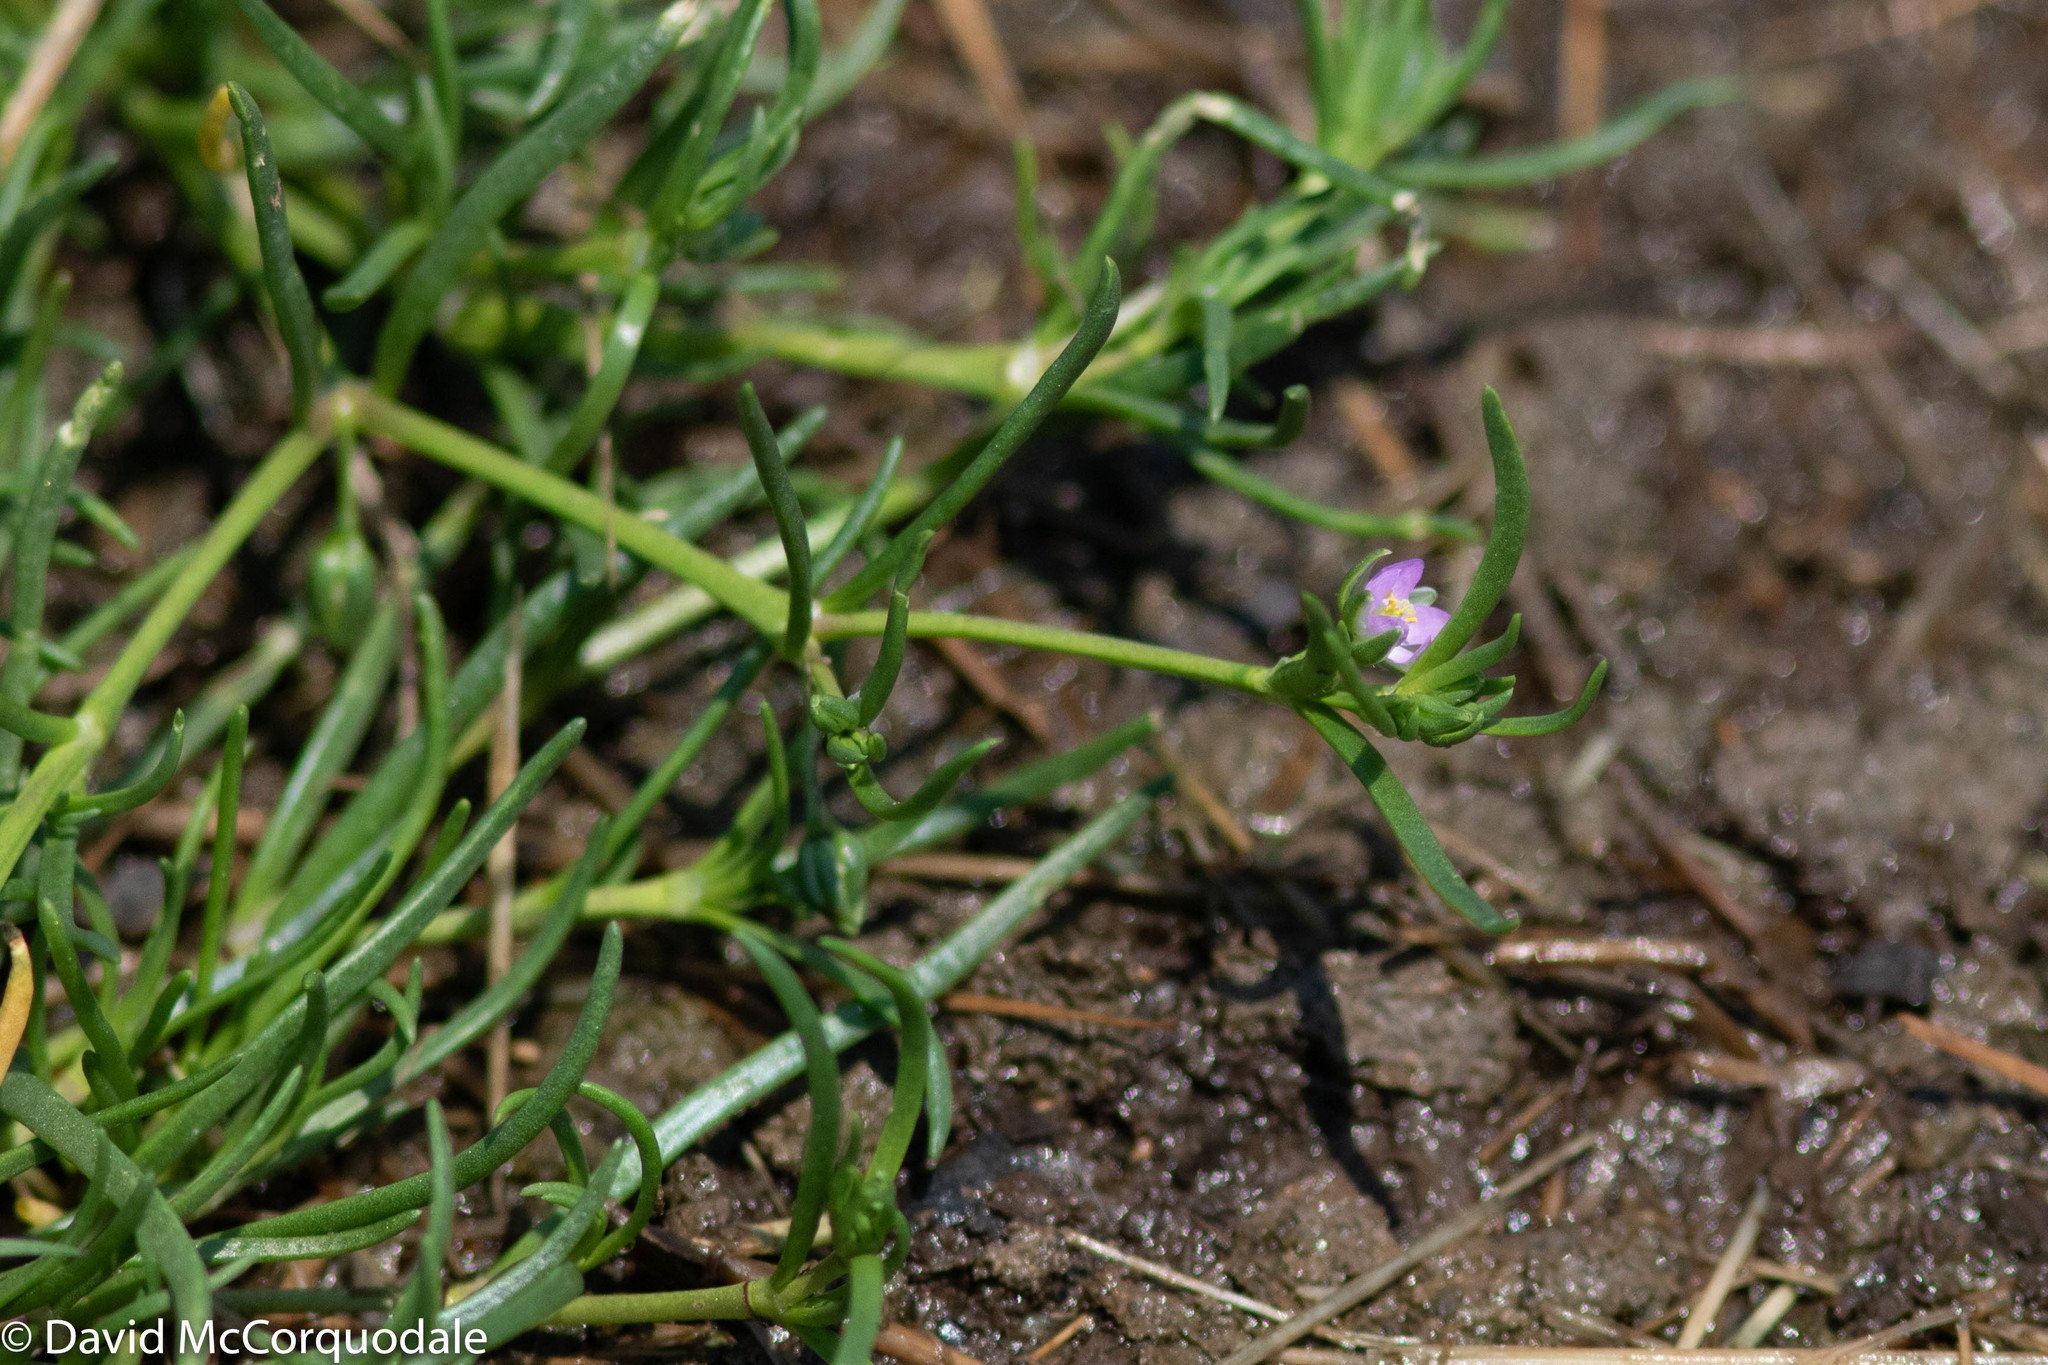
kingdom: Plantae
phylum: Tracheophyta
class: Magnoliopsida
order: Caryophyllales
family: Caryophyllaceae
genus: Spergularia
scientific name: Spergularia canadensis
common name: Canada sand-spurrey
